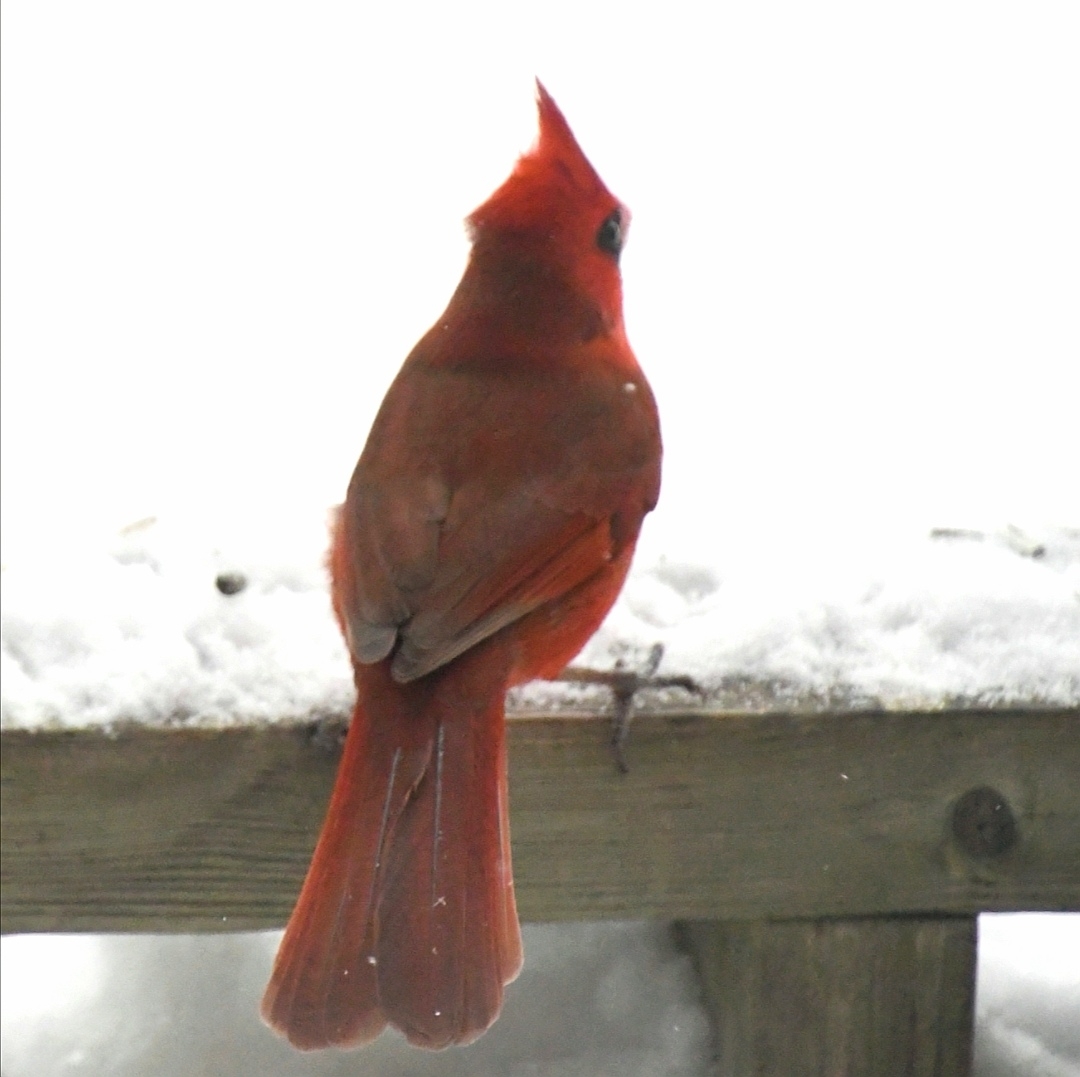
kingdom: Animalia
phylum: Chordata
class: Aves
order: Passeriformes
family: Cardinalidae
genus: Cardinalis
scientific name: Cardinalis cardinalis
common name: Northern cardinal
